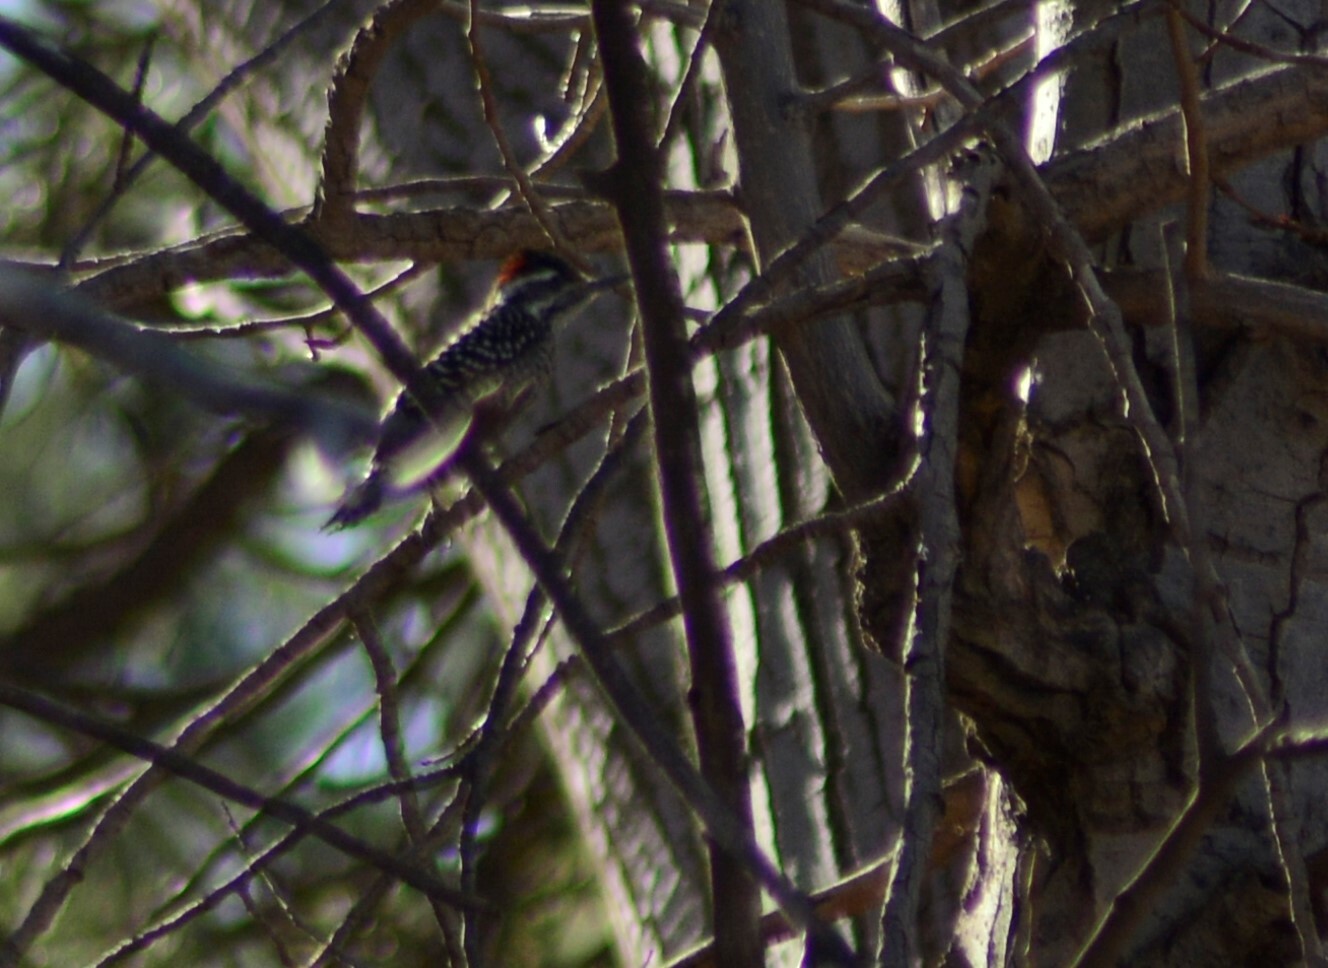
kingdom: Animalia
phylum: Chordata
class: Aves
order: Piciformes
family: Picidae
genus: Veniliornis
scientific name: Veniliornis mixtus
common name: Checkered woodpecker
